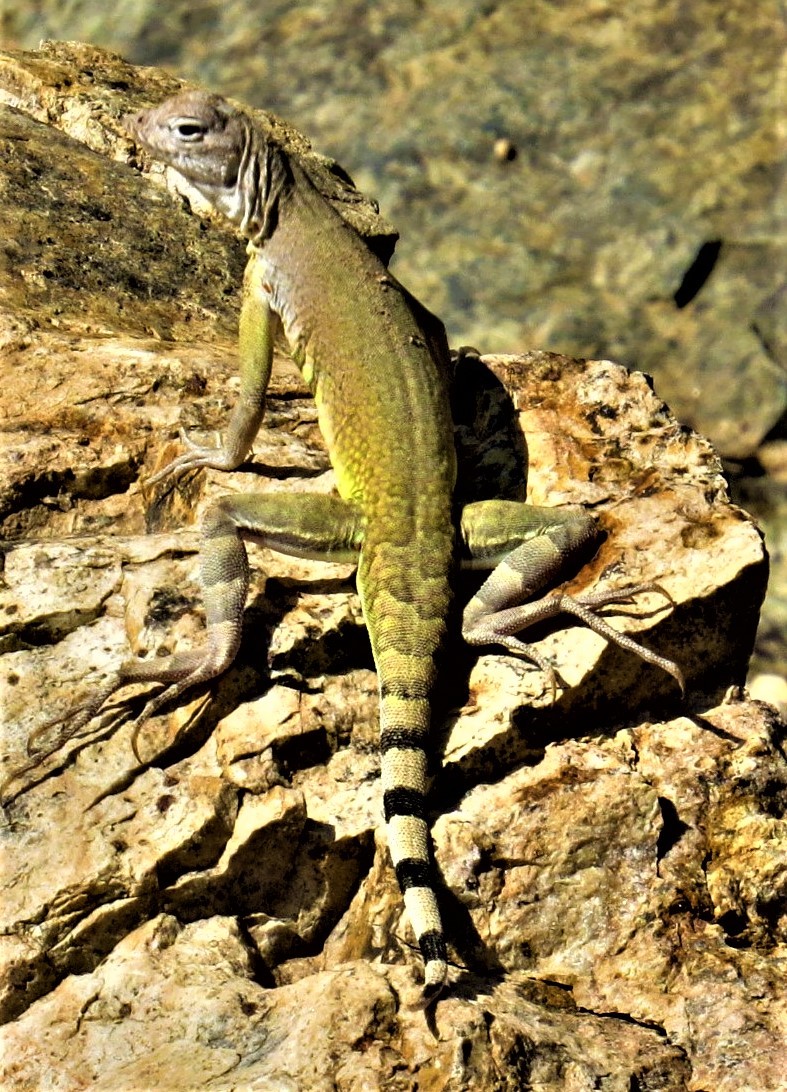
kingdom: Animalia
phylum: Chordata
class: Squamata
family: Phrynosomatidae
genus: Callisaurus
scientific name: Callisaurus draconoides
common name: Zebra-tailed lizard
